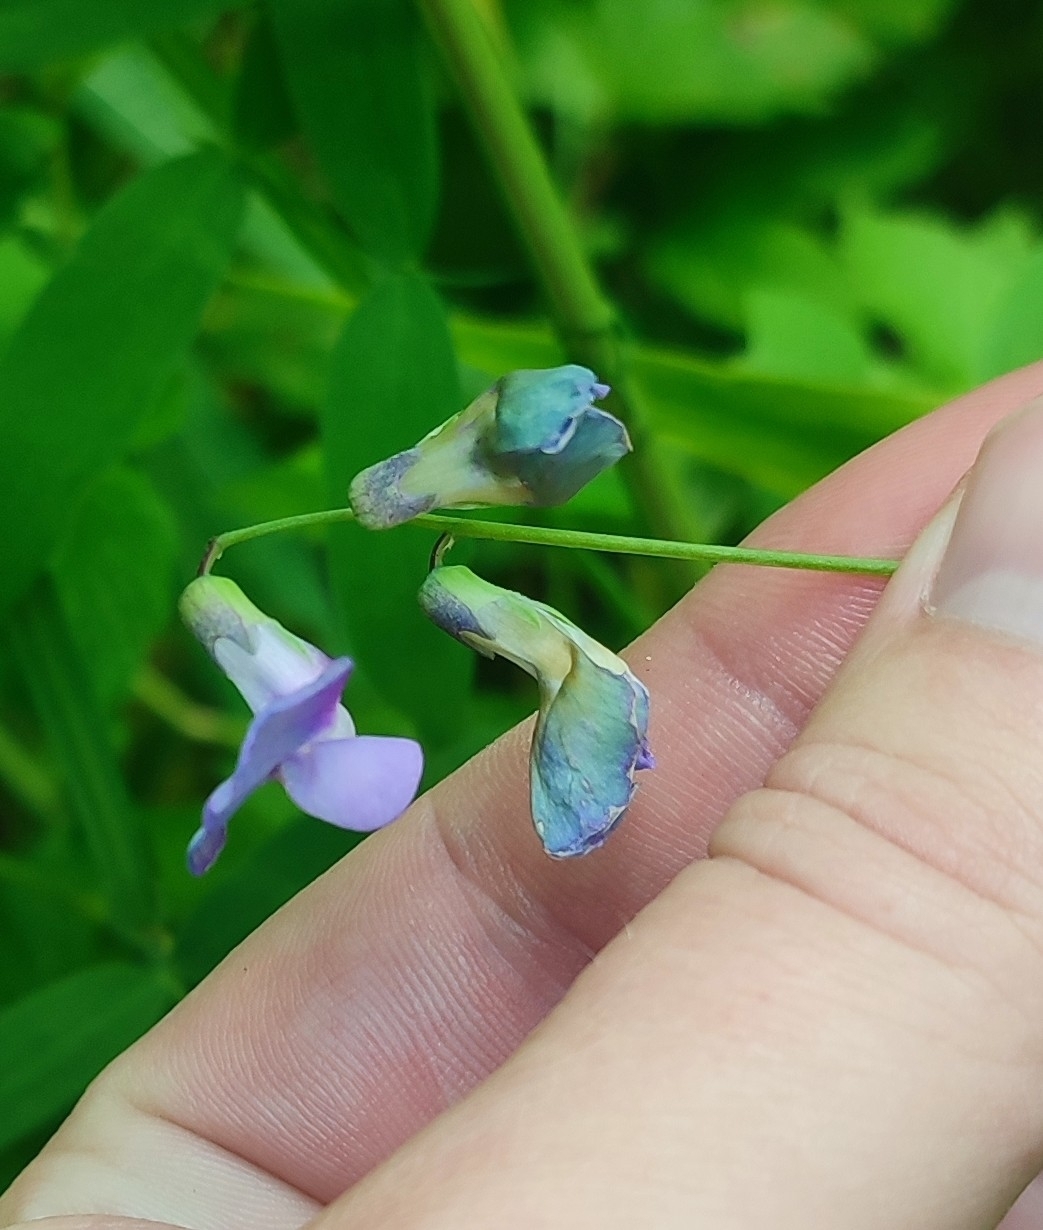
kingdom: Plantae
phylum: Tracheophyta
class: Magnoliopsida
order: Fabales
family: Fabaceae
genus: Lathyrus
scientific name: Lathyrus palustris
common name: Marsh pea
